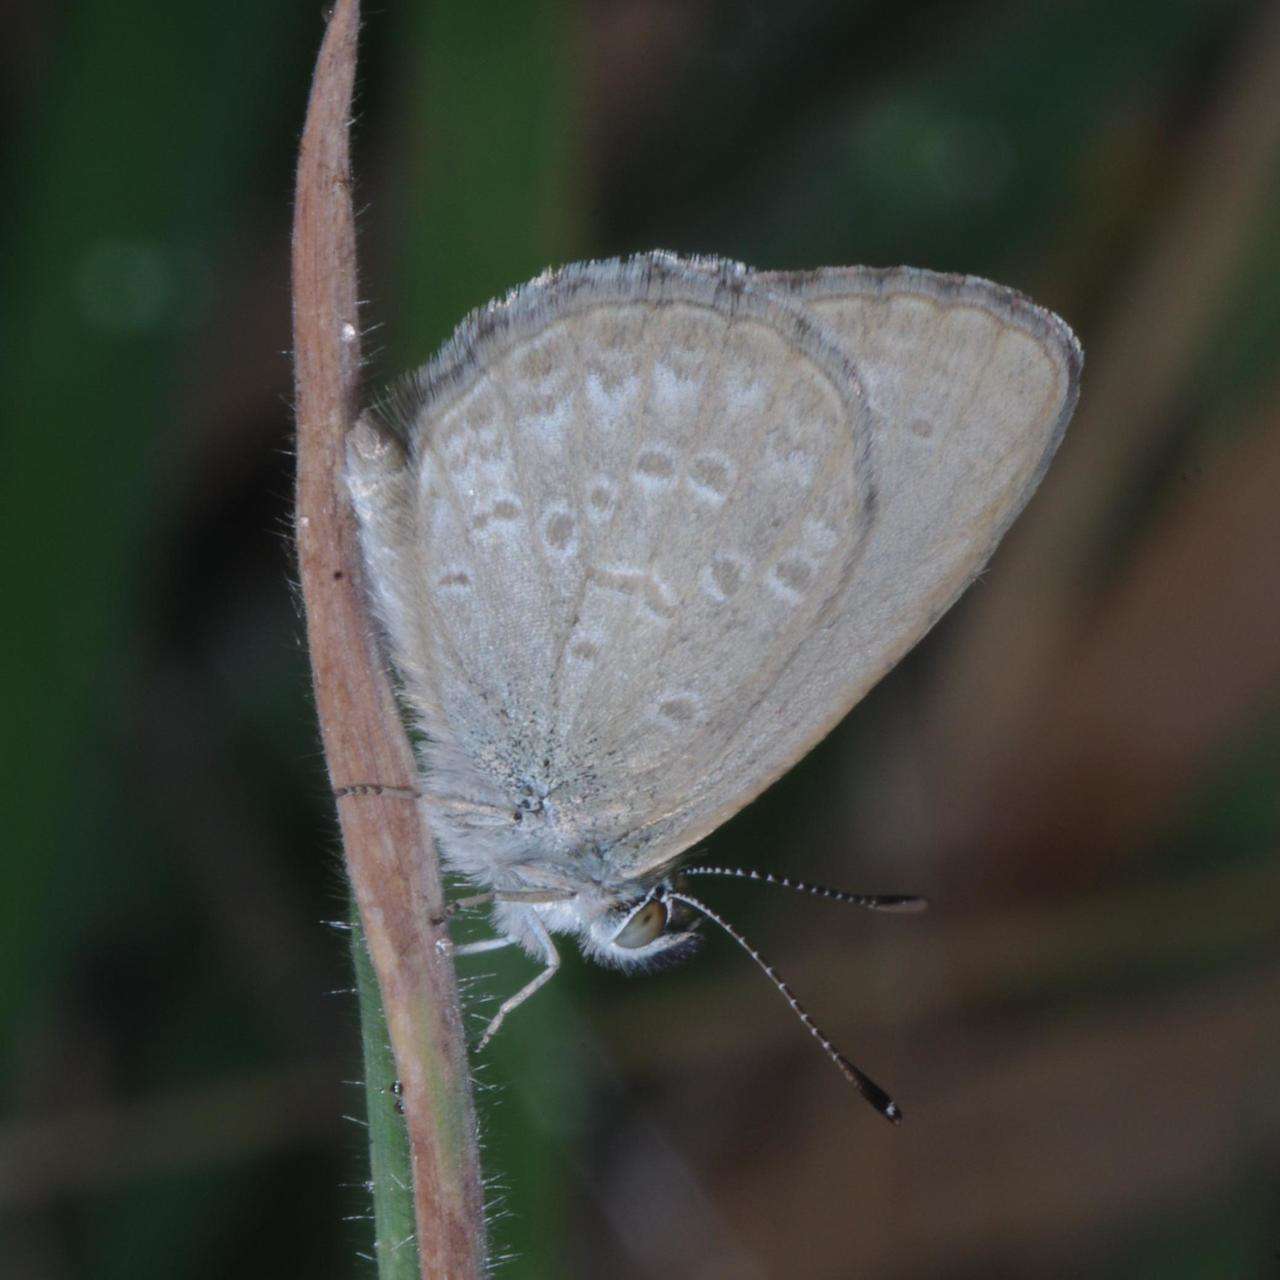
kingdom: Animalia
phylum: Arthropoda
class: Insecta
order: Lepidoptera
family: Lycaenidae
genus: Zizina
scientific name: Zizina labradus
